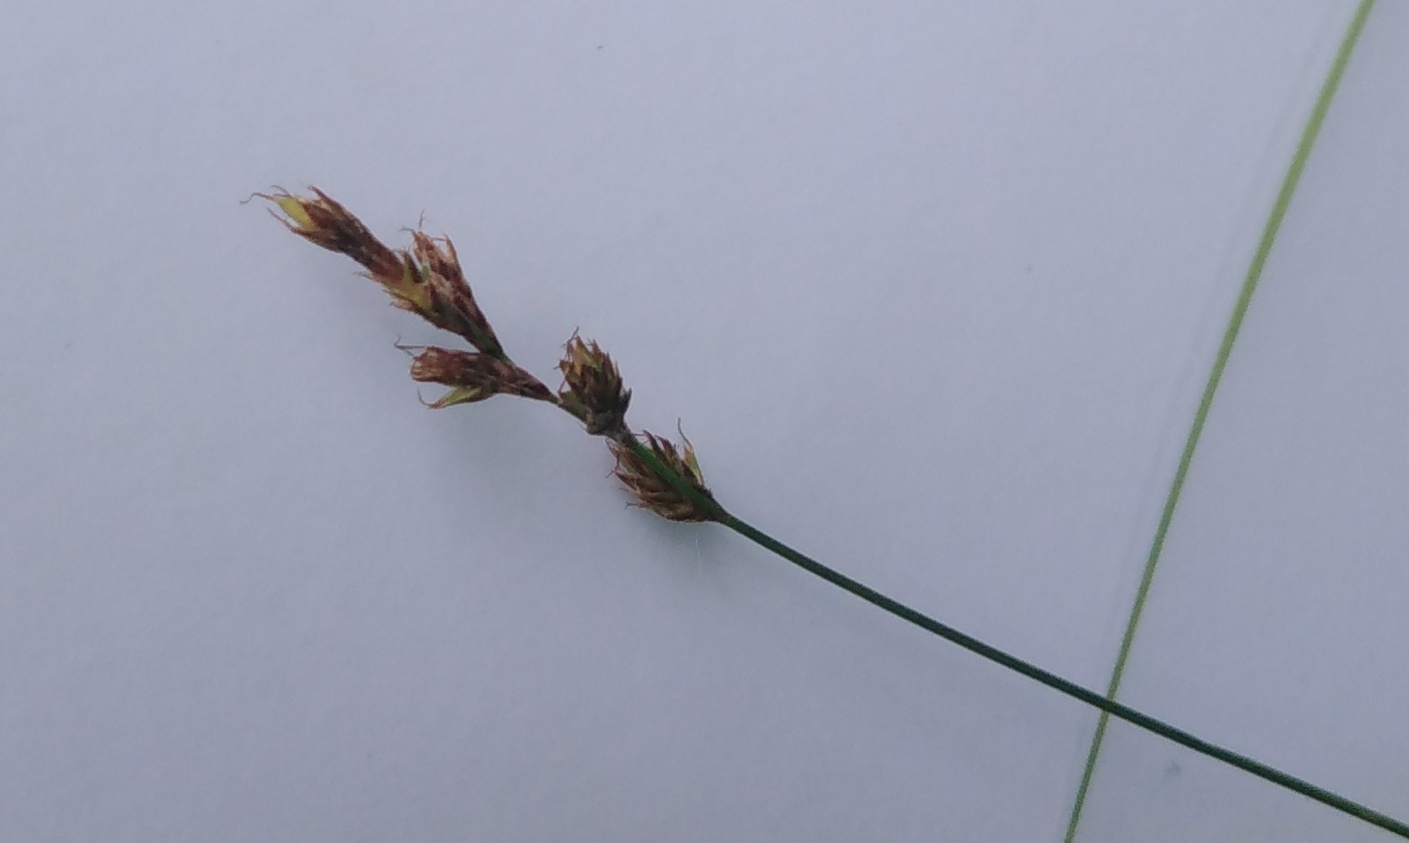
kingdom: Plantae
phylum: Tracheophyta
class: Liliopsida
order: Poales
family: Cyperaceae
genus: Carex
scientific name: Carex praecox
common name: Early sedge
